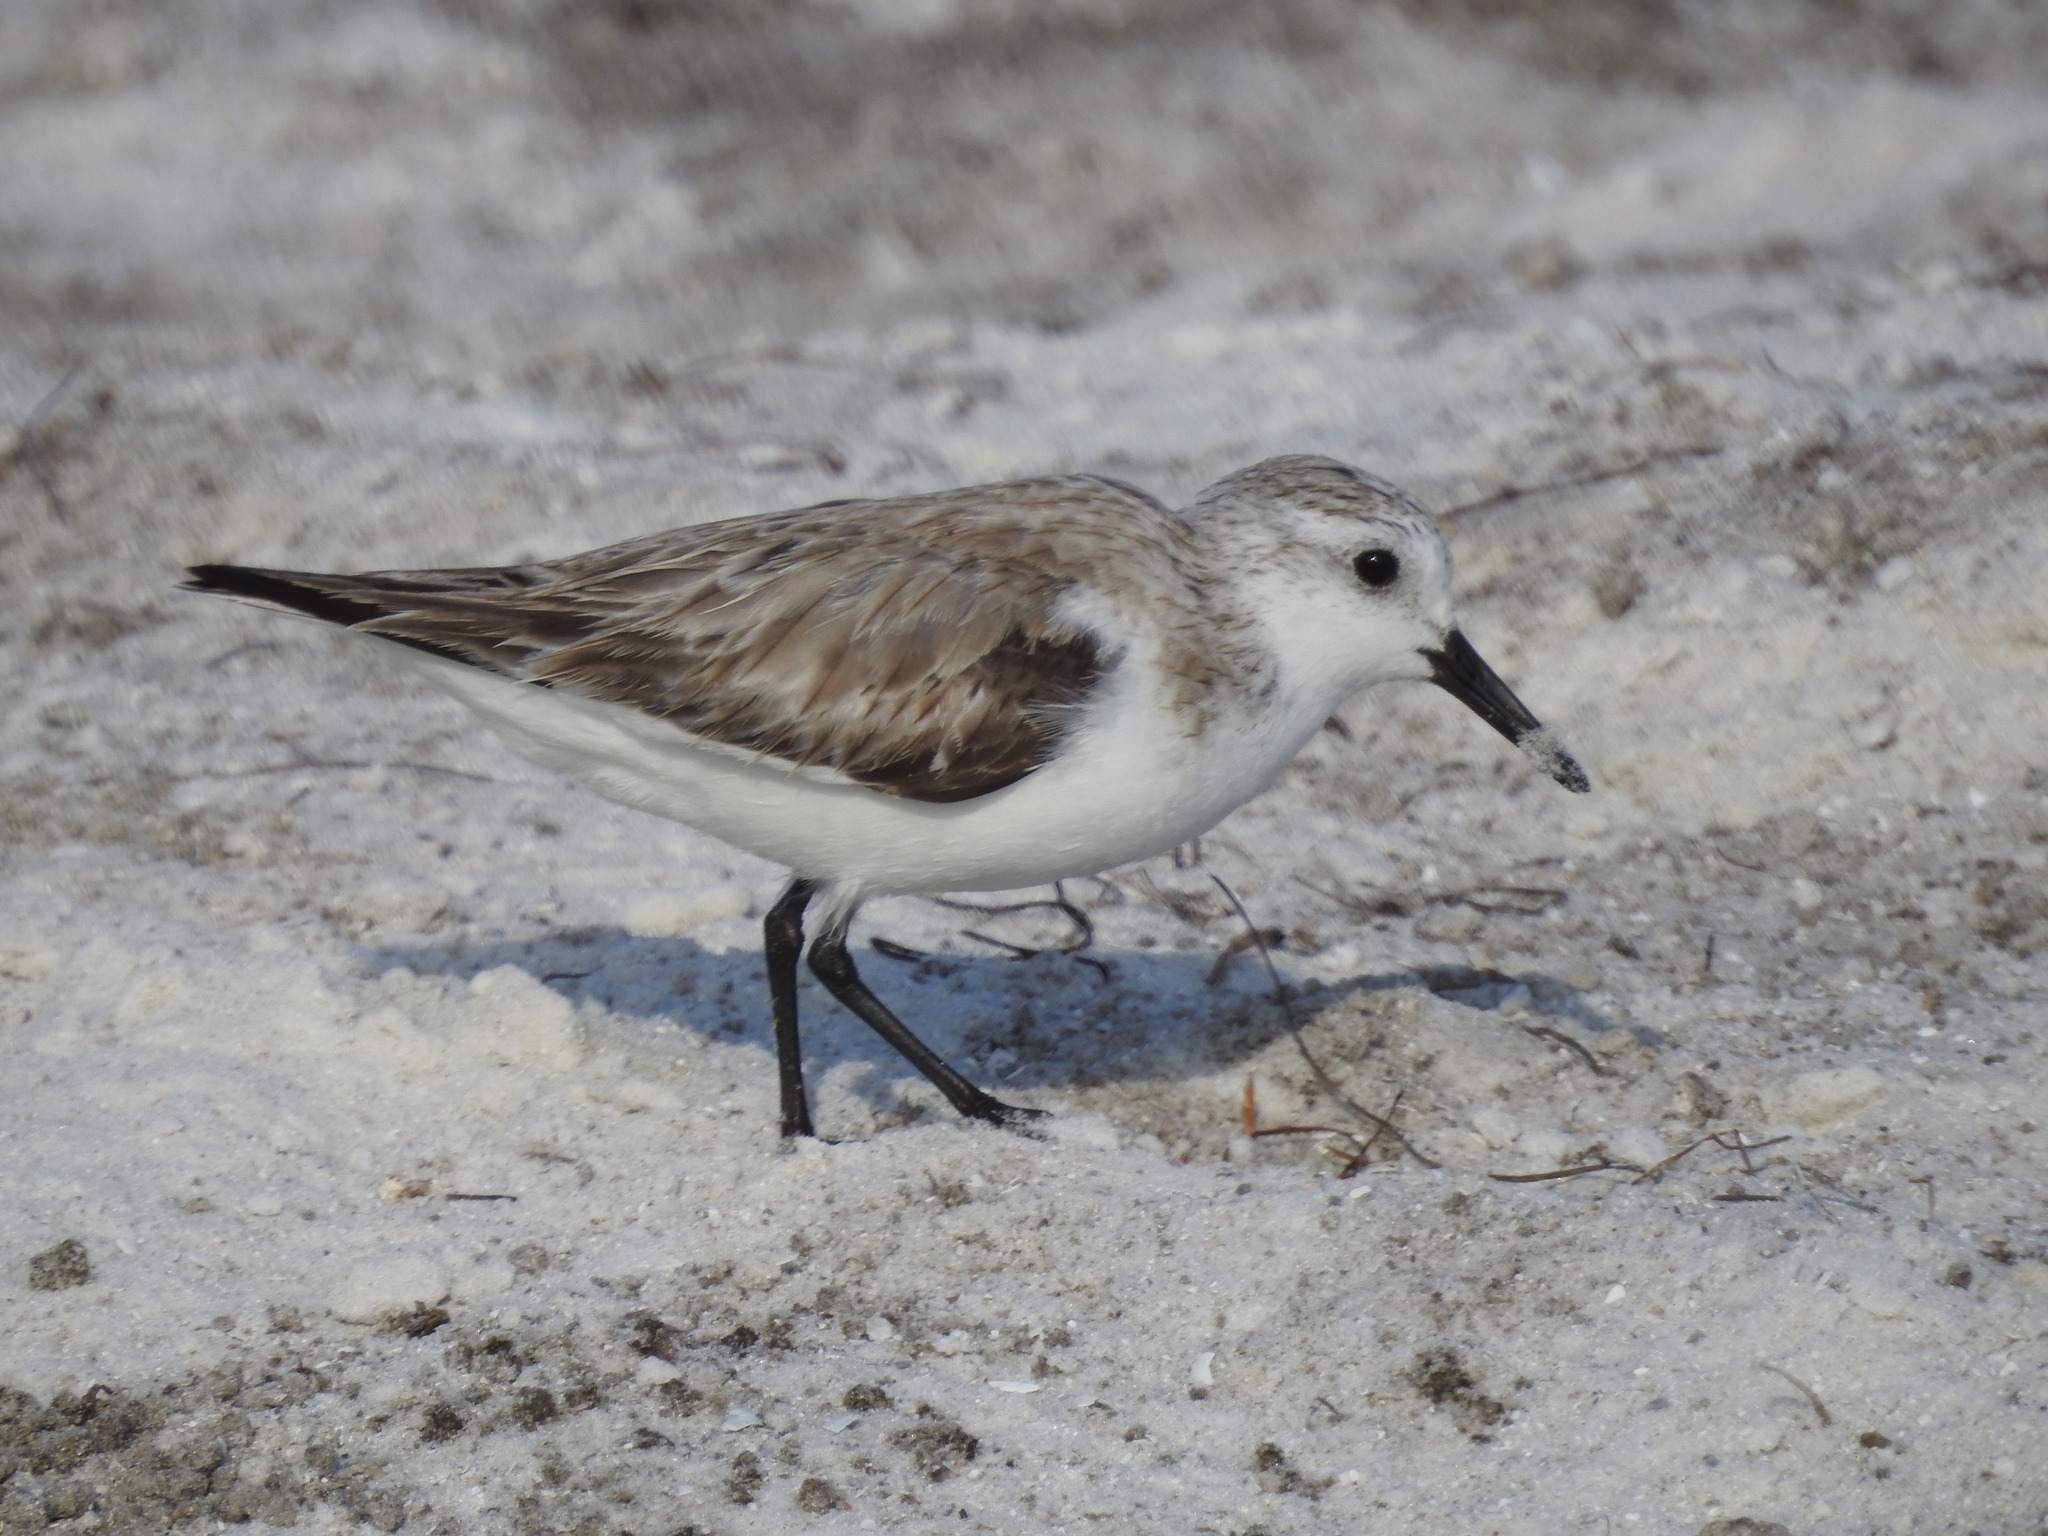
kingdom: Animalia
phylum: Chordata
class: Aves
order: Charadriiformes
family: Scolopacidae
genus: Calidris
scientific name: Calidris alba
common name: Sanderling
